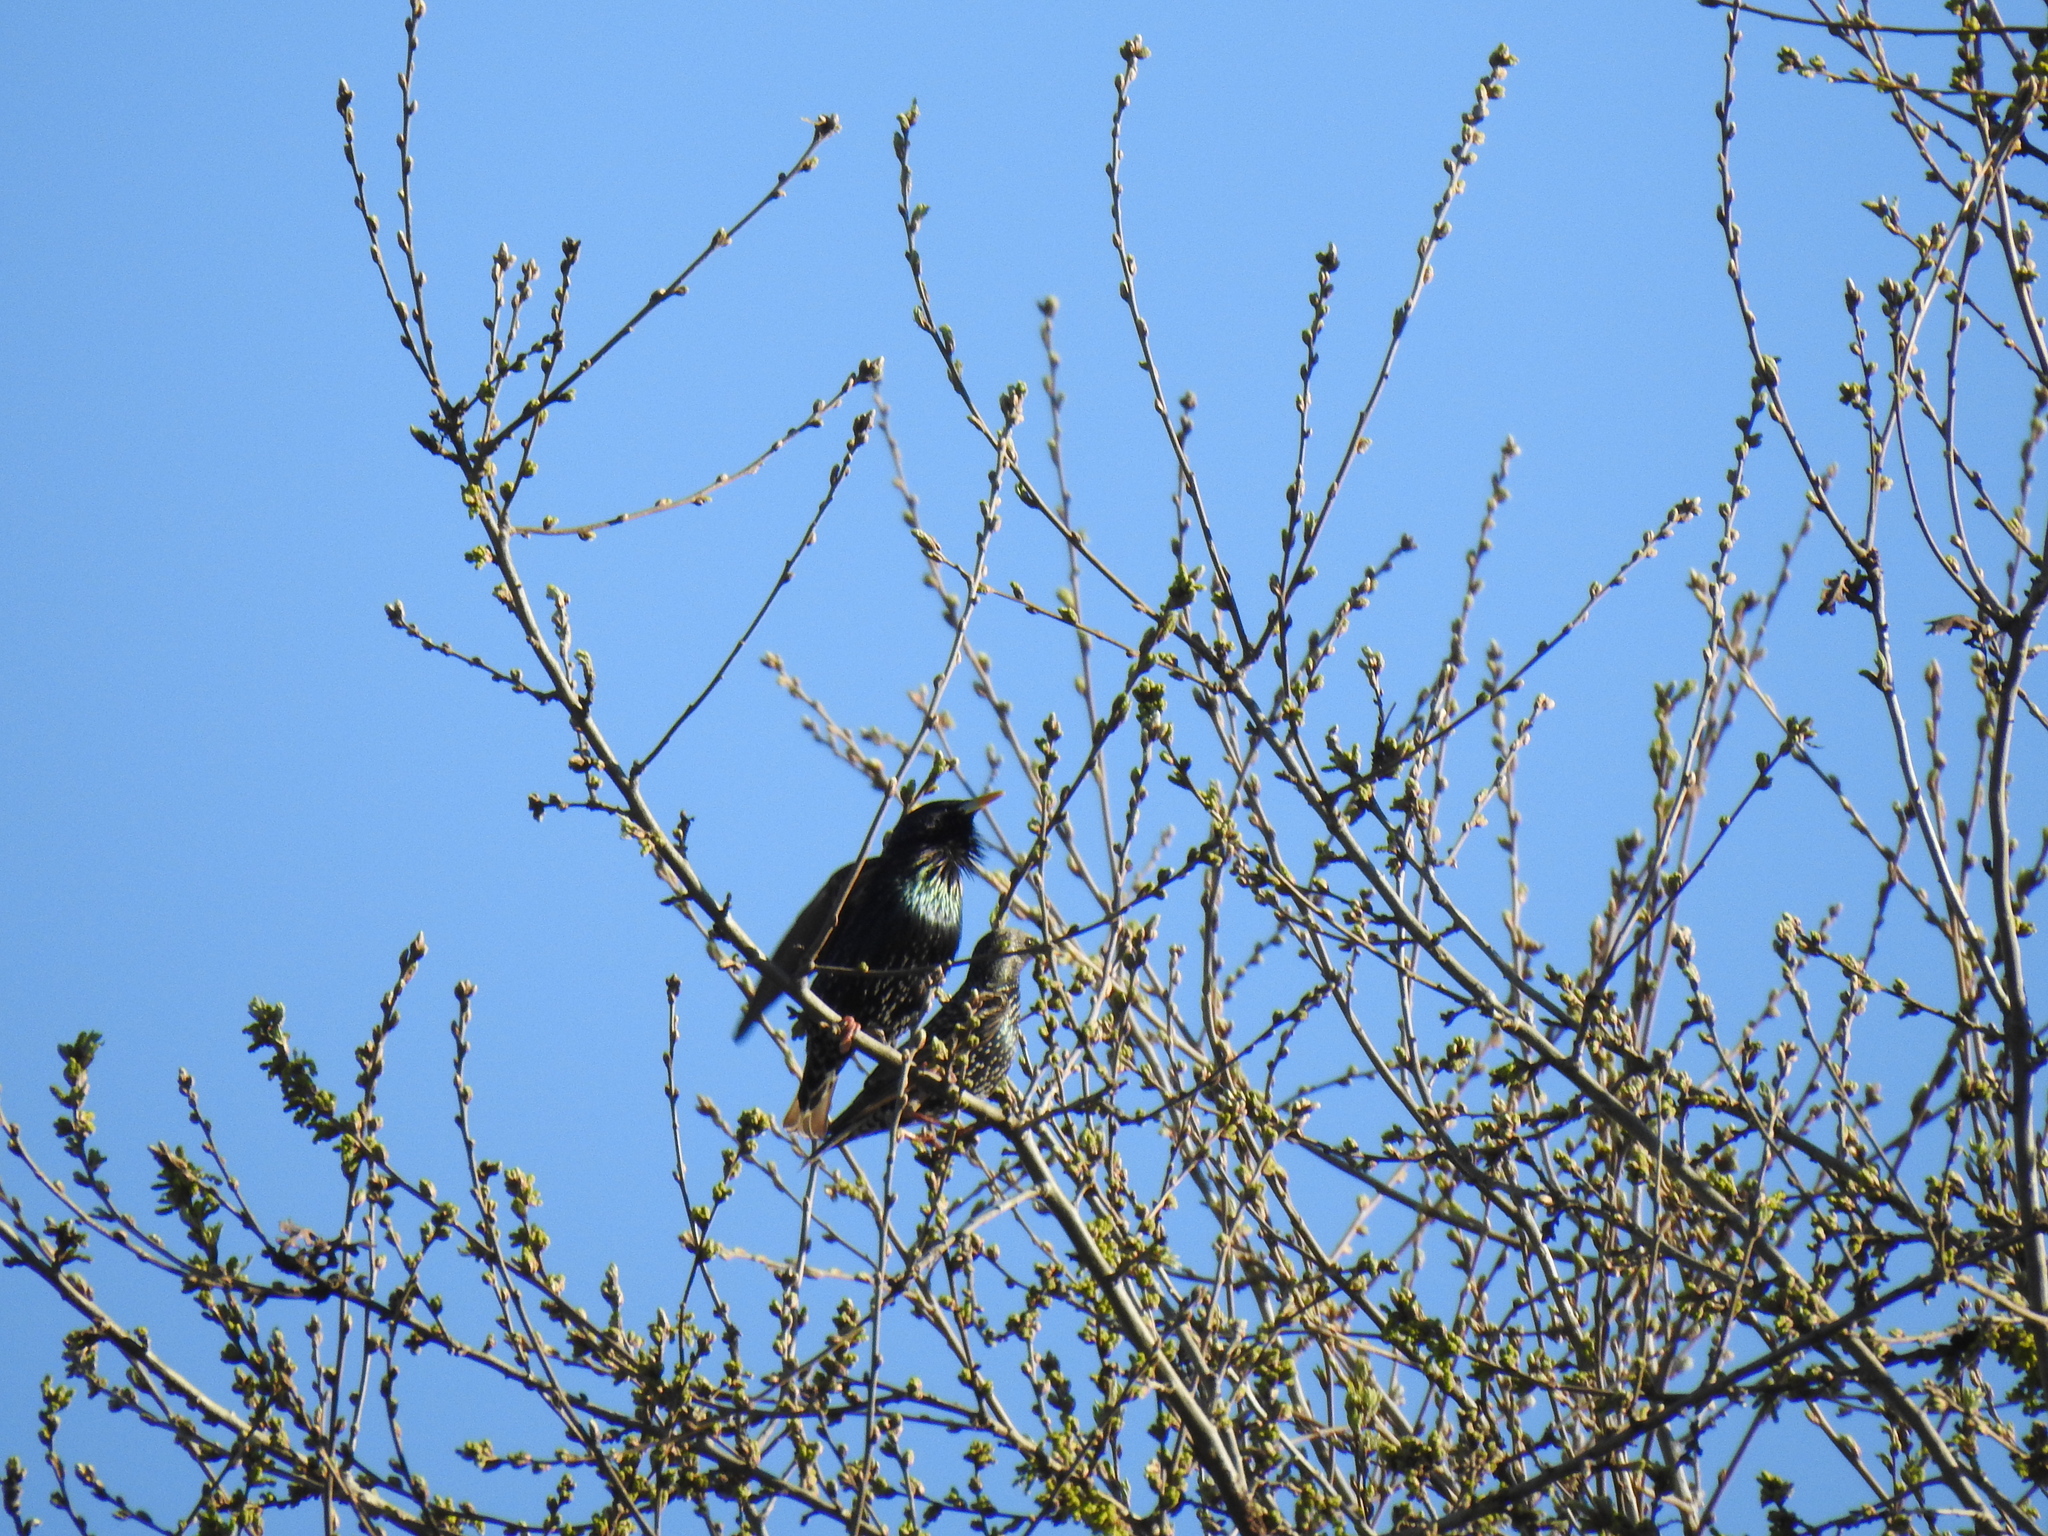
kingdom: Animalia
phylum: Chordata
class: Aves
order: Passeriformes
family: Sturnidae
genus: Sturnus
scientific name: Sturnus vulgaris
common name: Common starling
